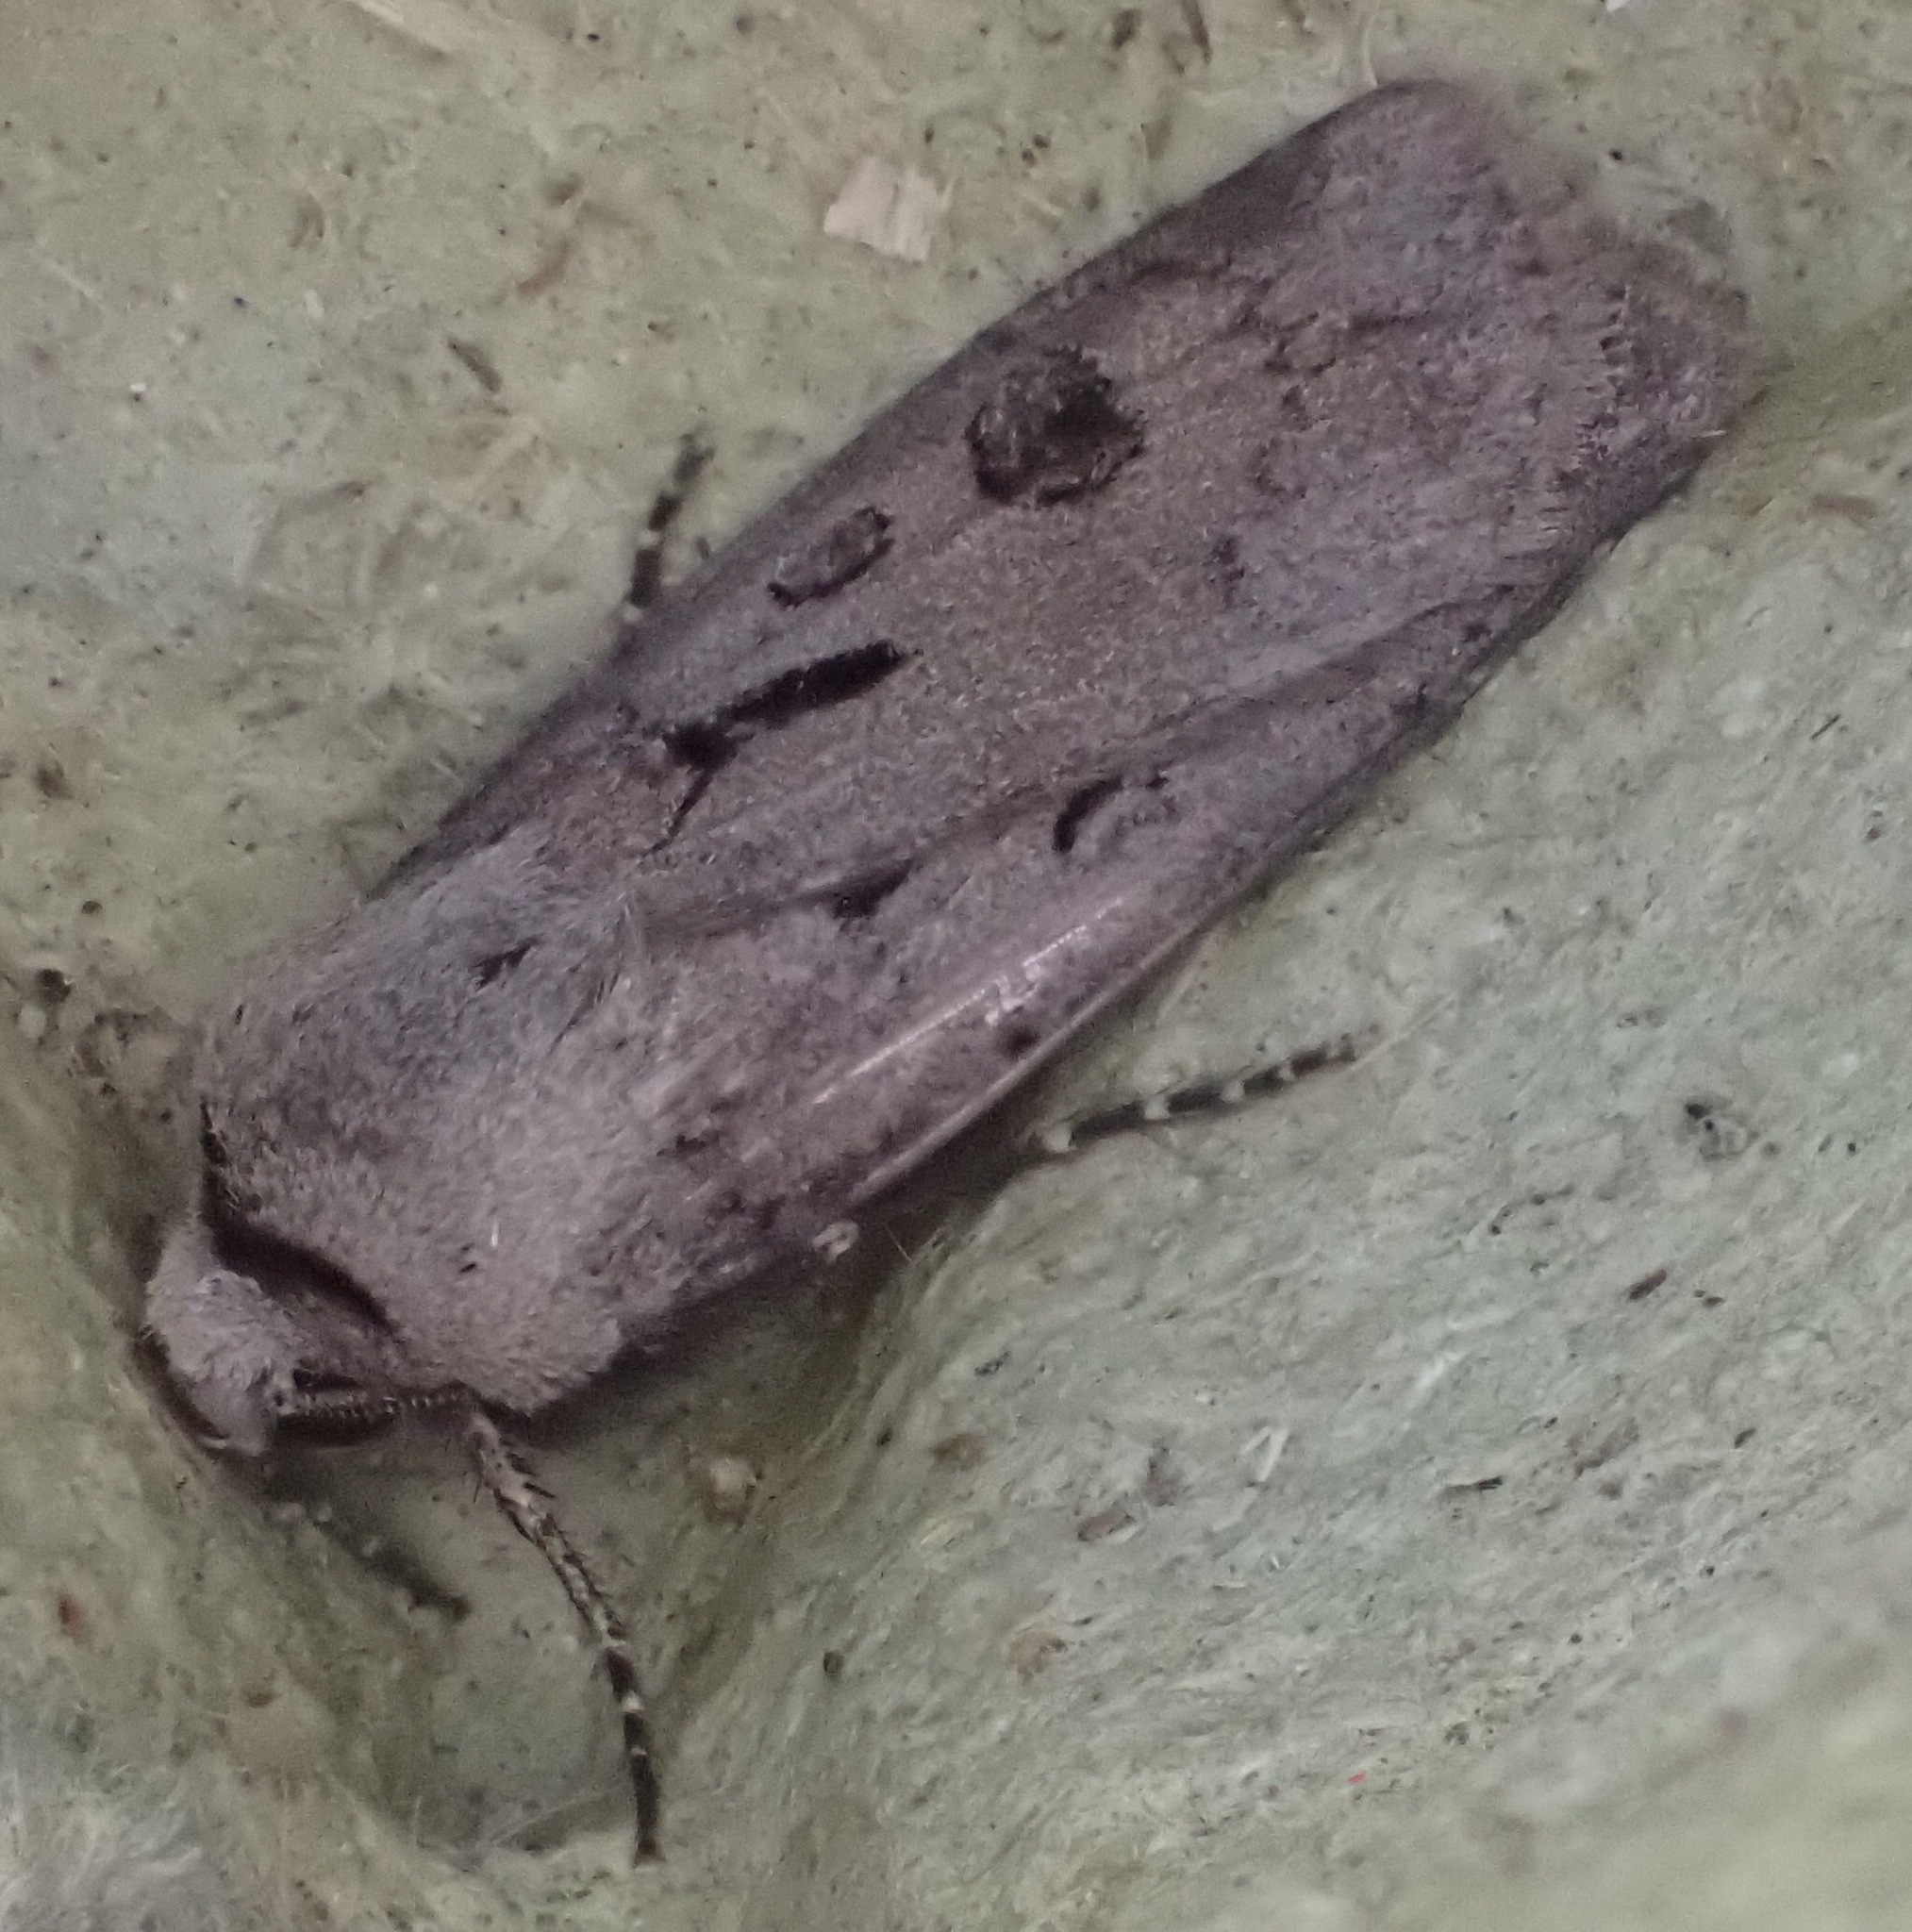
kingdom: Animalia
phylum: Arthropoda
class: Insecta
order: Lepidoptera
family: Noctuidae
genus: Agrotis
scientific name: Agrotis exclamationis
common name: Heart and dart
